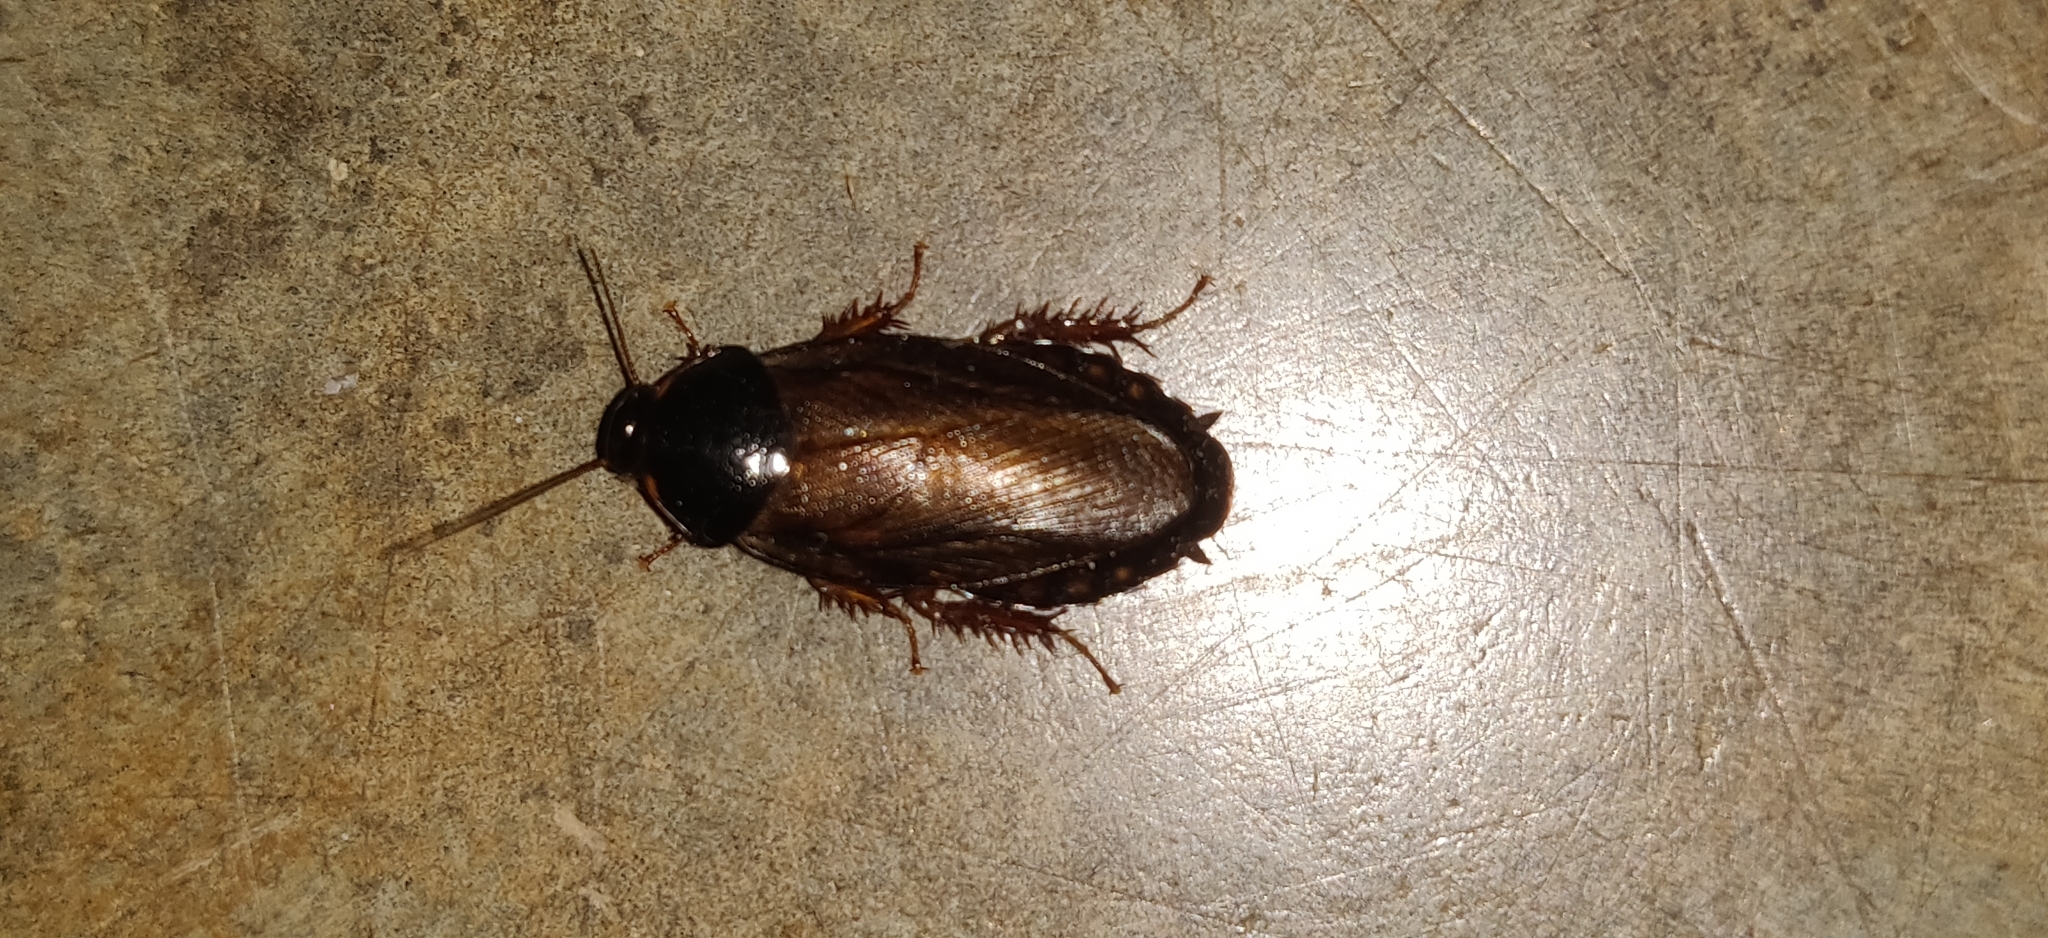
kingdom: Animalia
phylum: Arthropoda
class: Insecta
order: Blattodea
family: Blaberidae
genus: Pycnoscelus
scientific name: Pycnoscelus indicus
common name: Burrowing cockroach
